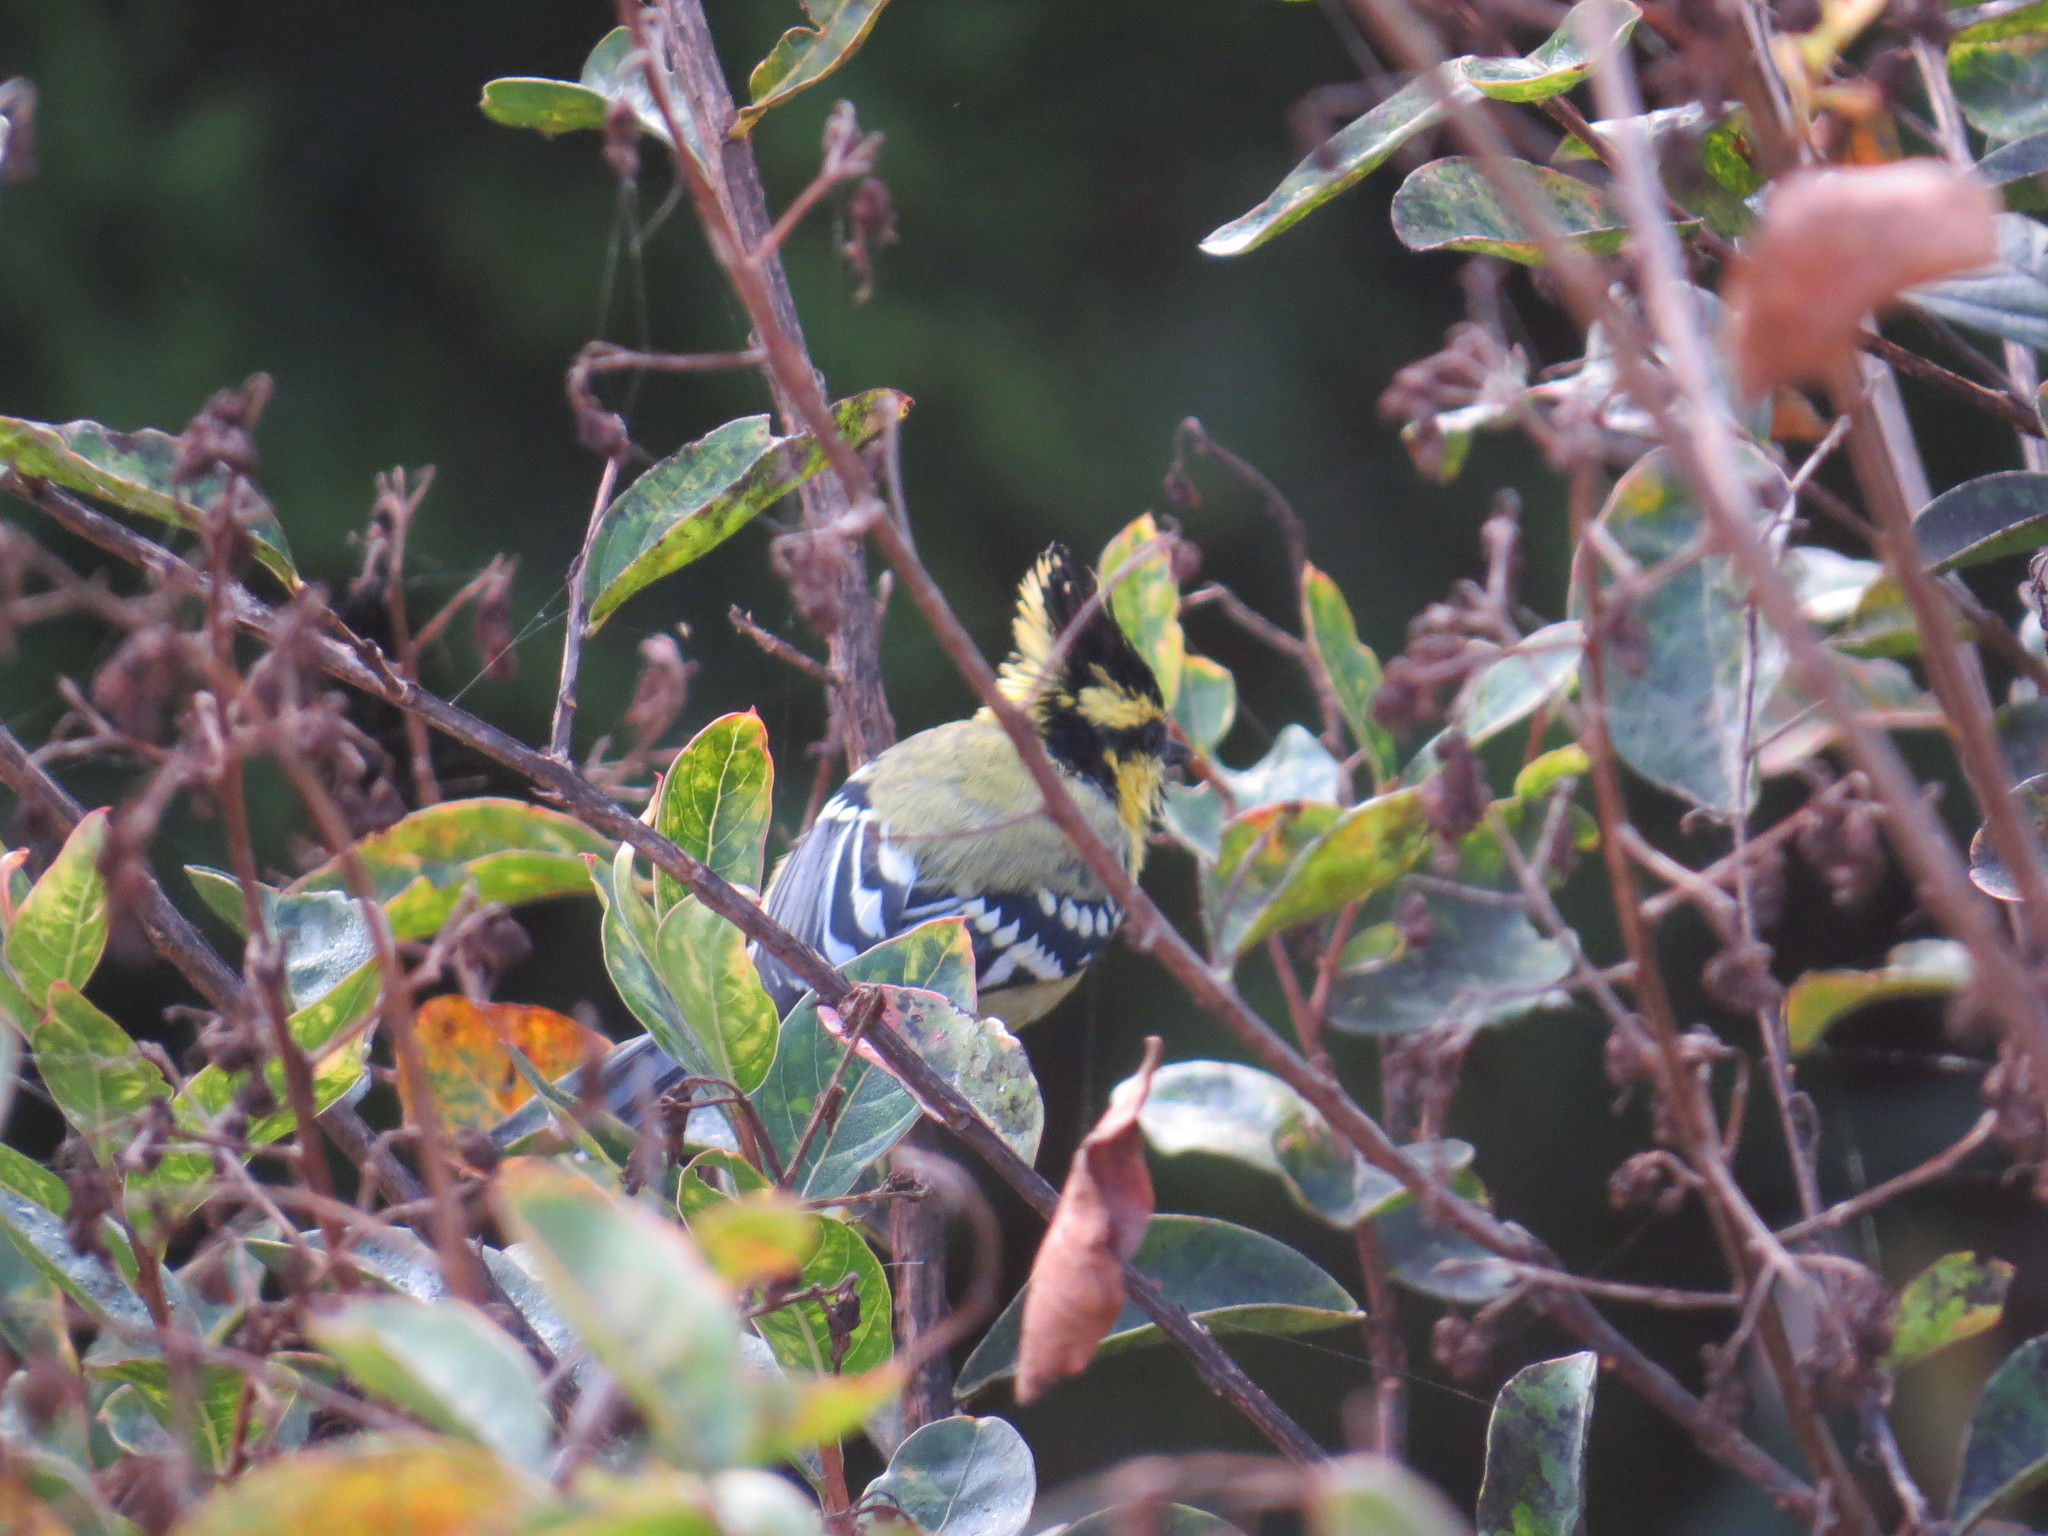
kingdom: Animalia
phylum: Chordata
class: Aves
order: Passeriformes
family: Paridae
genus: Parus
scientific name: Parus xanthogenys
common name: Black-lored tit
